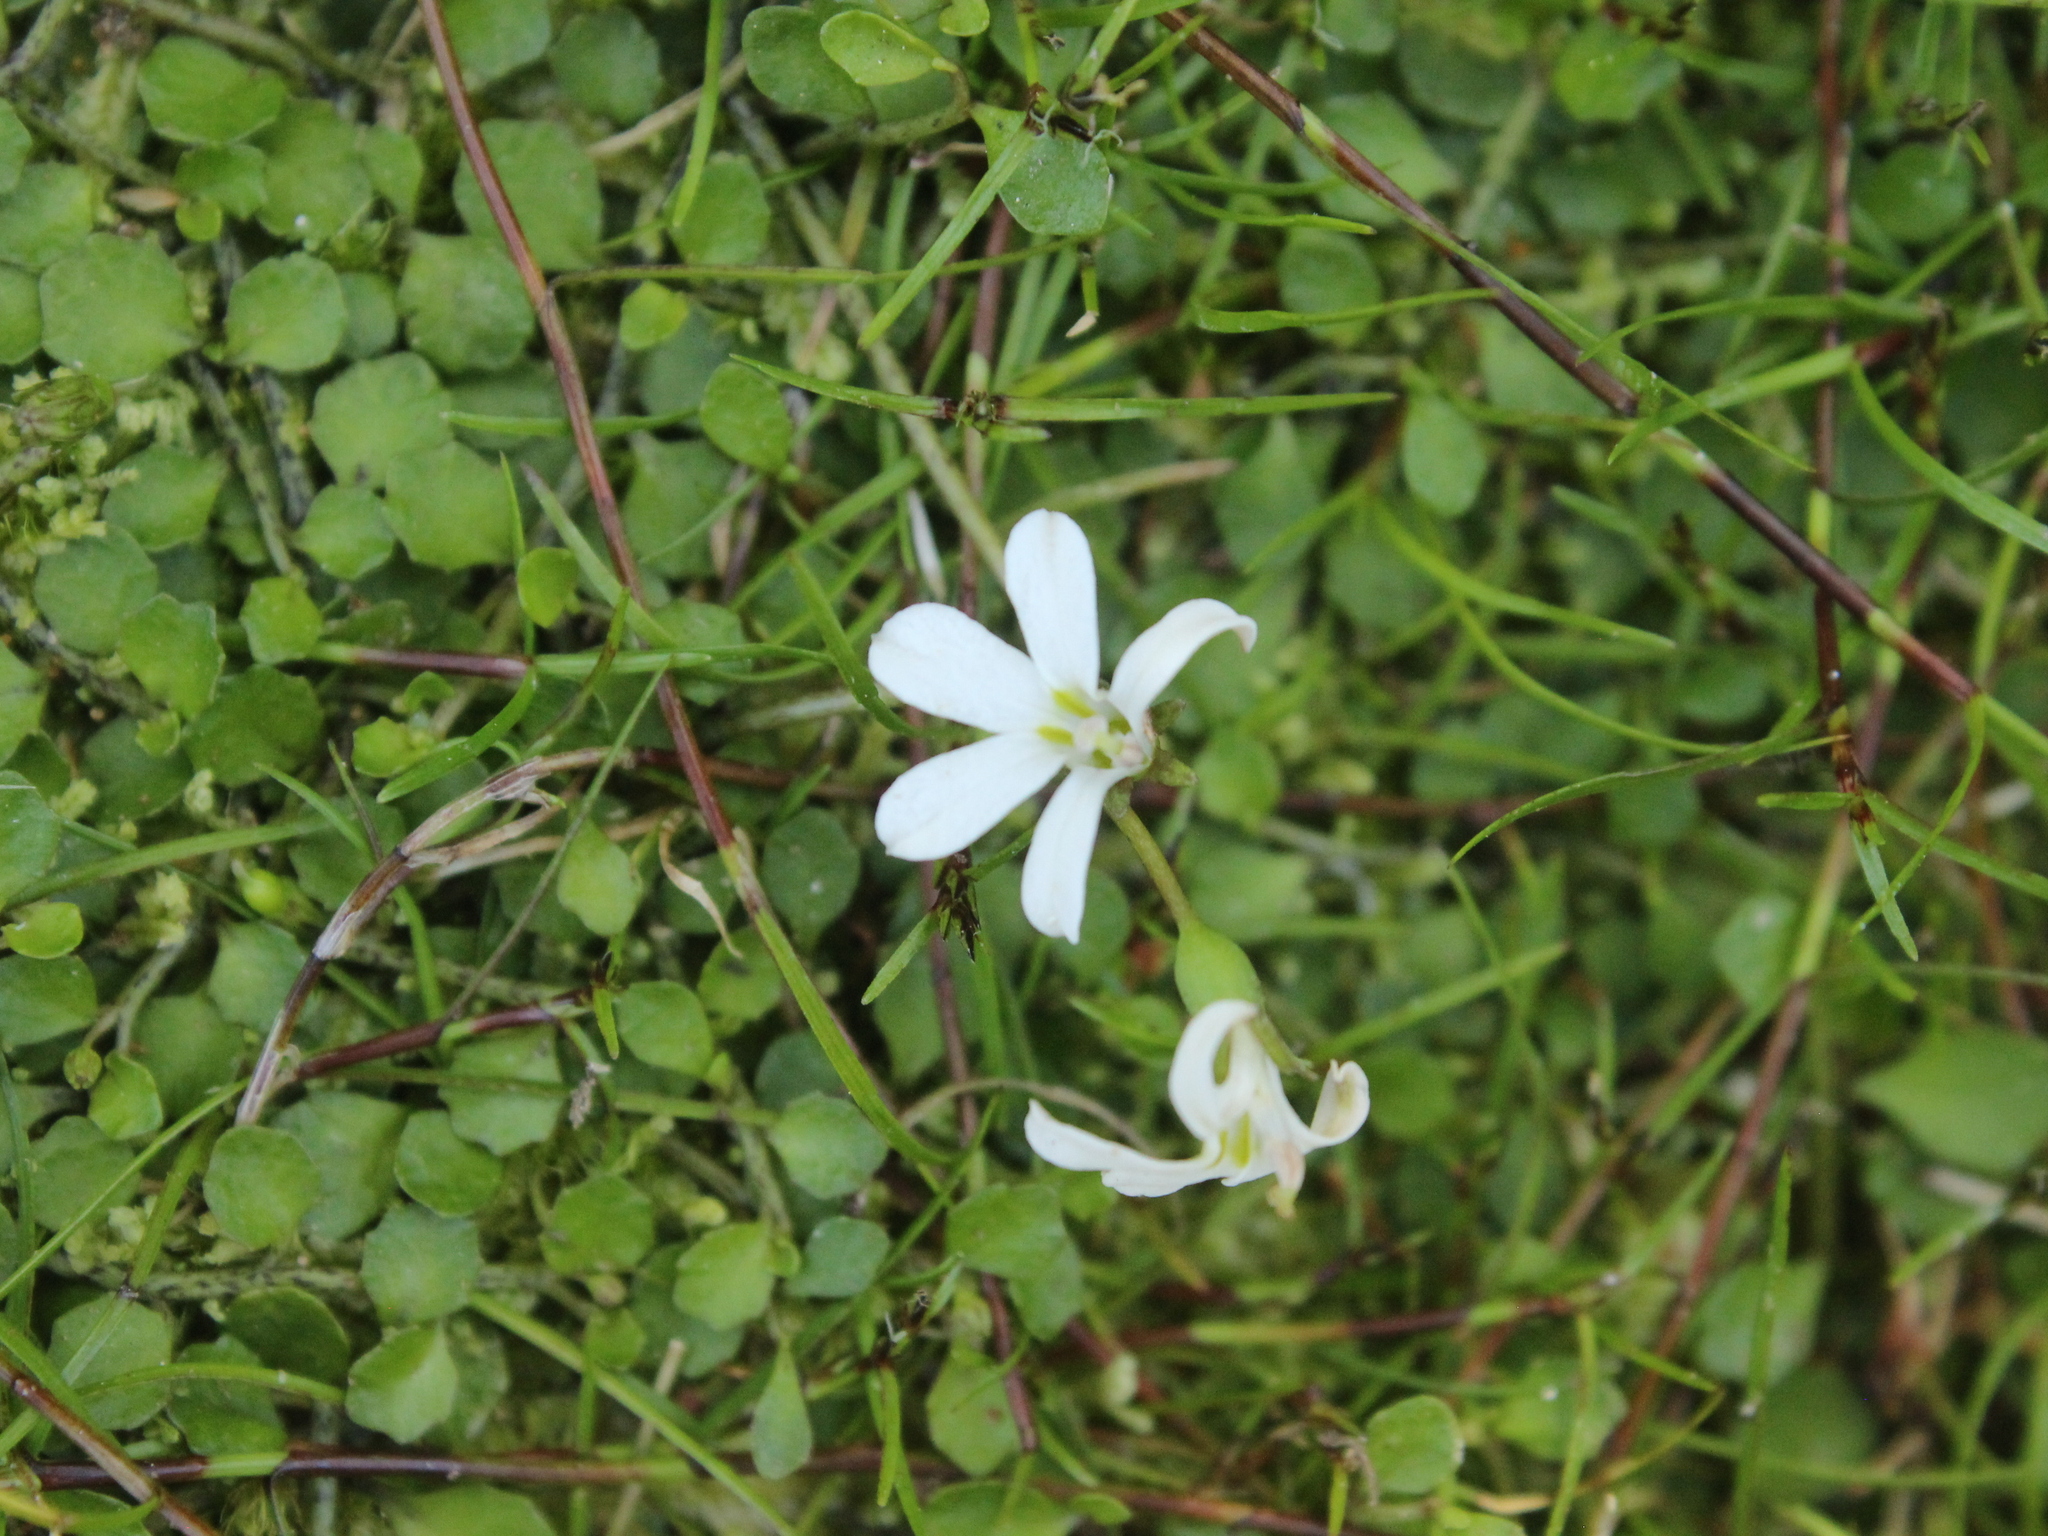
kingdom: Plantae
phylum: Tracheophyta
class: Magnoliopsida
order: Asterales
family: Campanulaceae
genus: Lobelia
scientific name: Lobelia angulata
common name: Lawn lobelia
